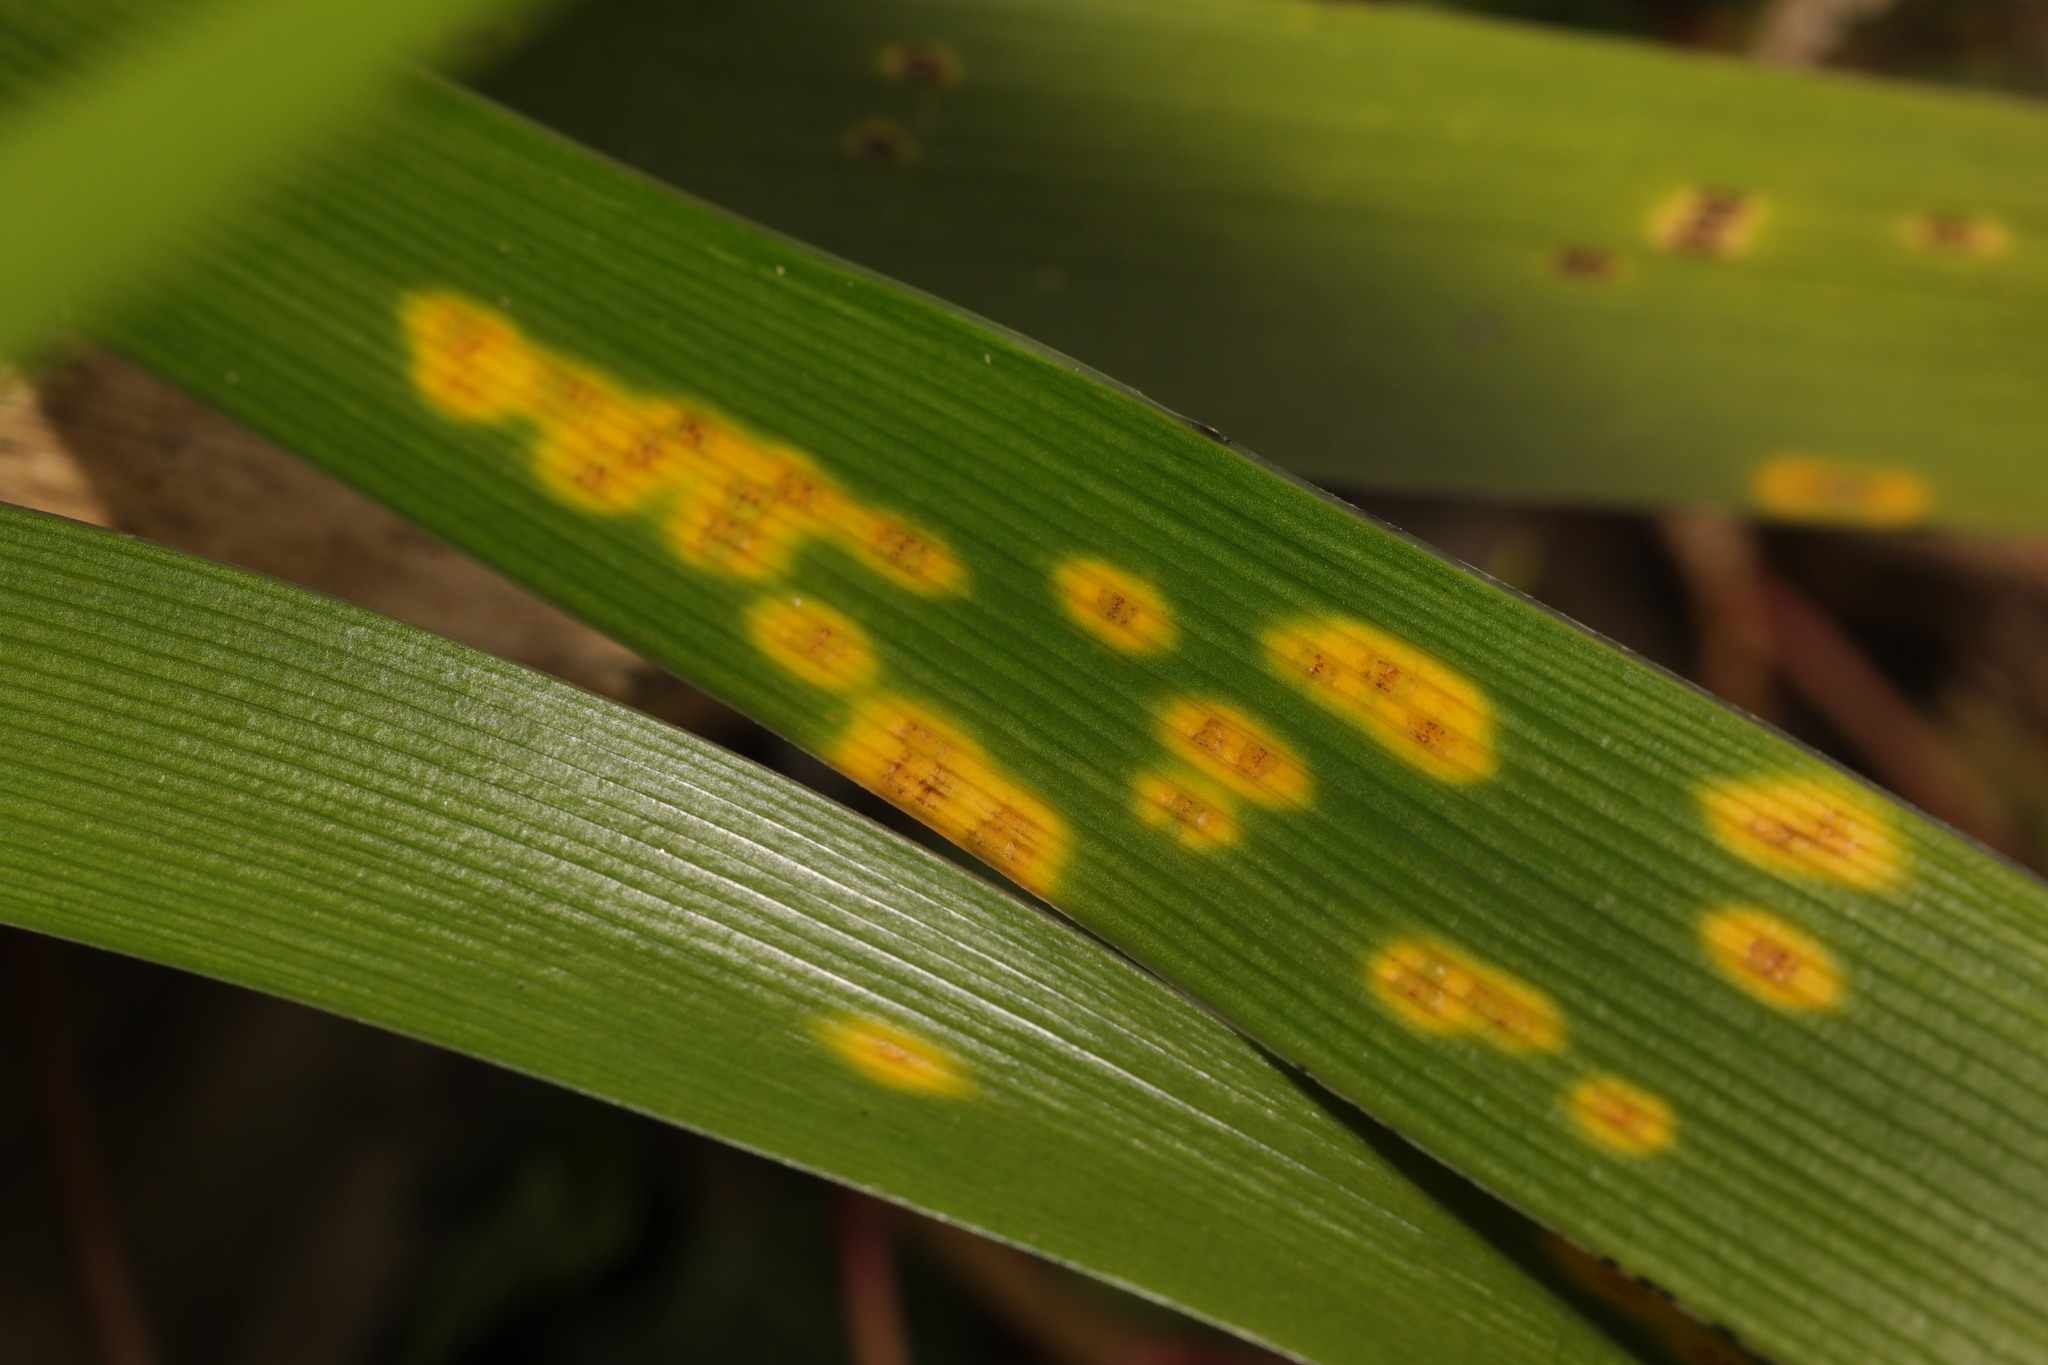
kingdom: Fungi
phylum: Basidiomycota
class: Pucciniomycetes
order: Pucciniales
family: Pucciniaceae
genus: Puccinia
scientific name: Puccinia iridis
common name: Iris rust
